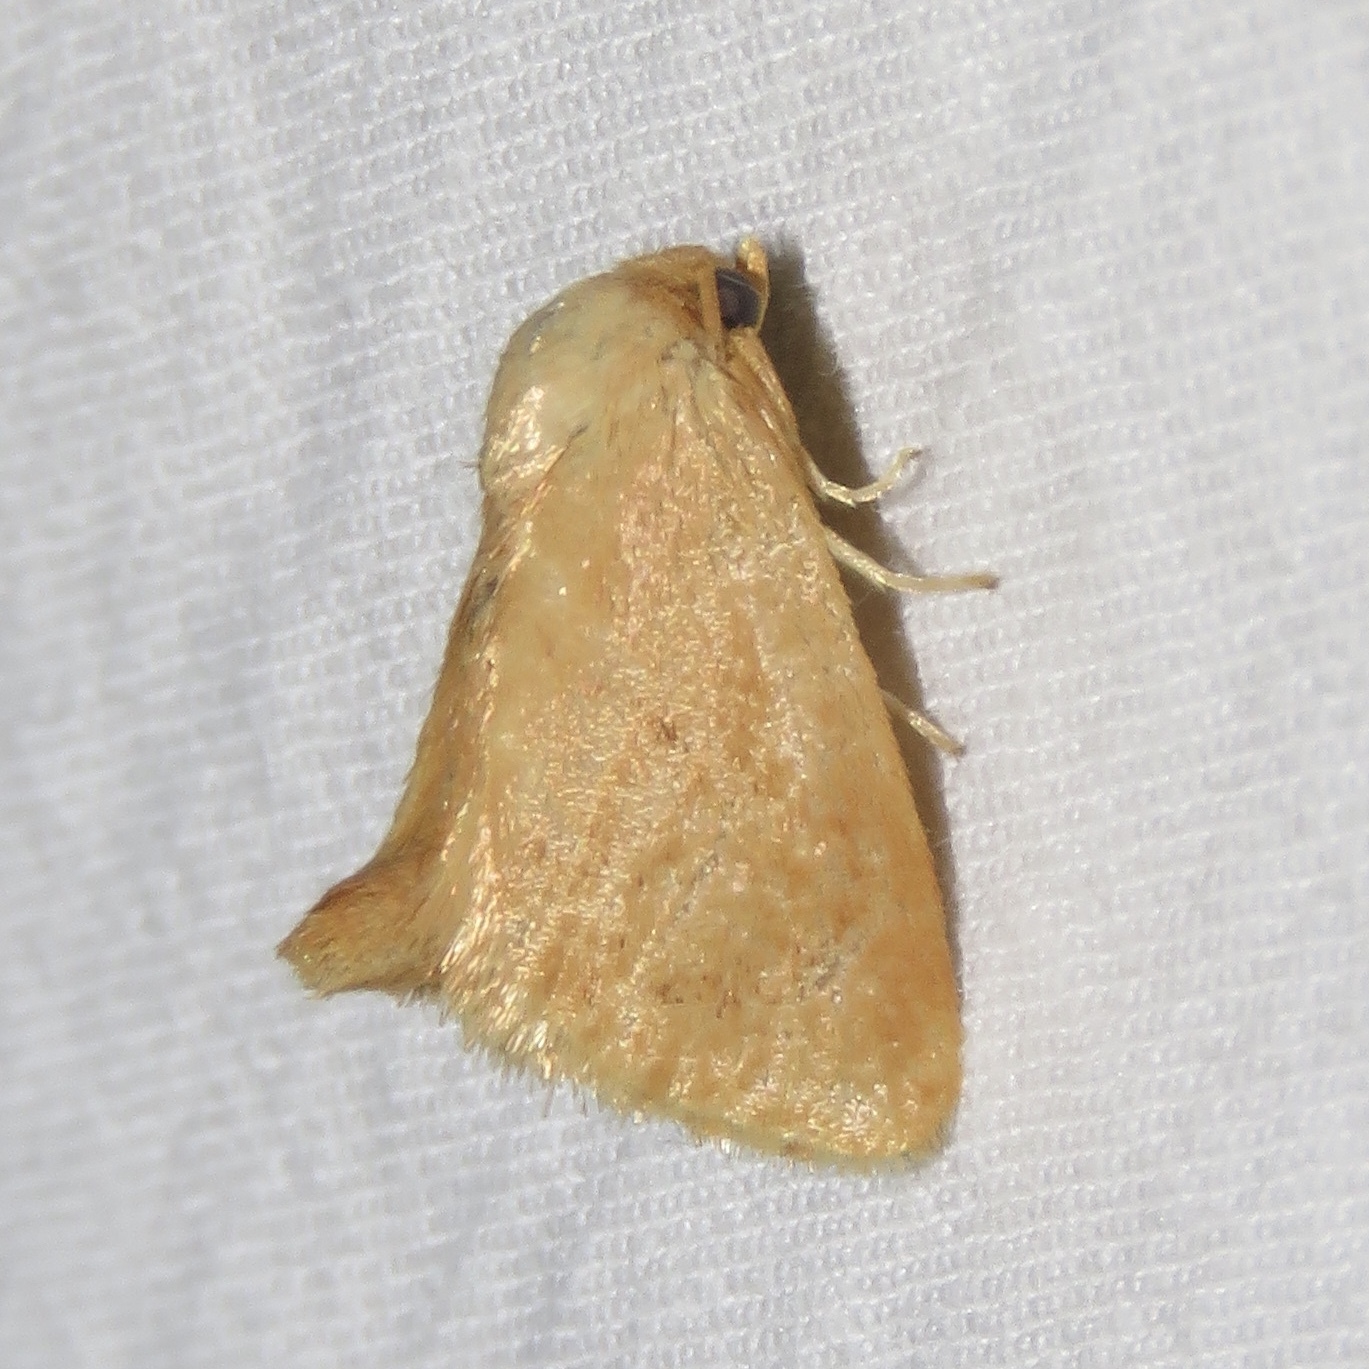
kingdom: Animalia
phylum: Arthropoda
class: Insecta
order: Lepidoptera
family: Limacodidae
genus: Tortricidia
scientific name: Tortricidia pallida
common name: Red-crossed button slug moth
